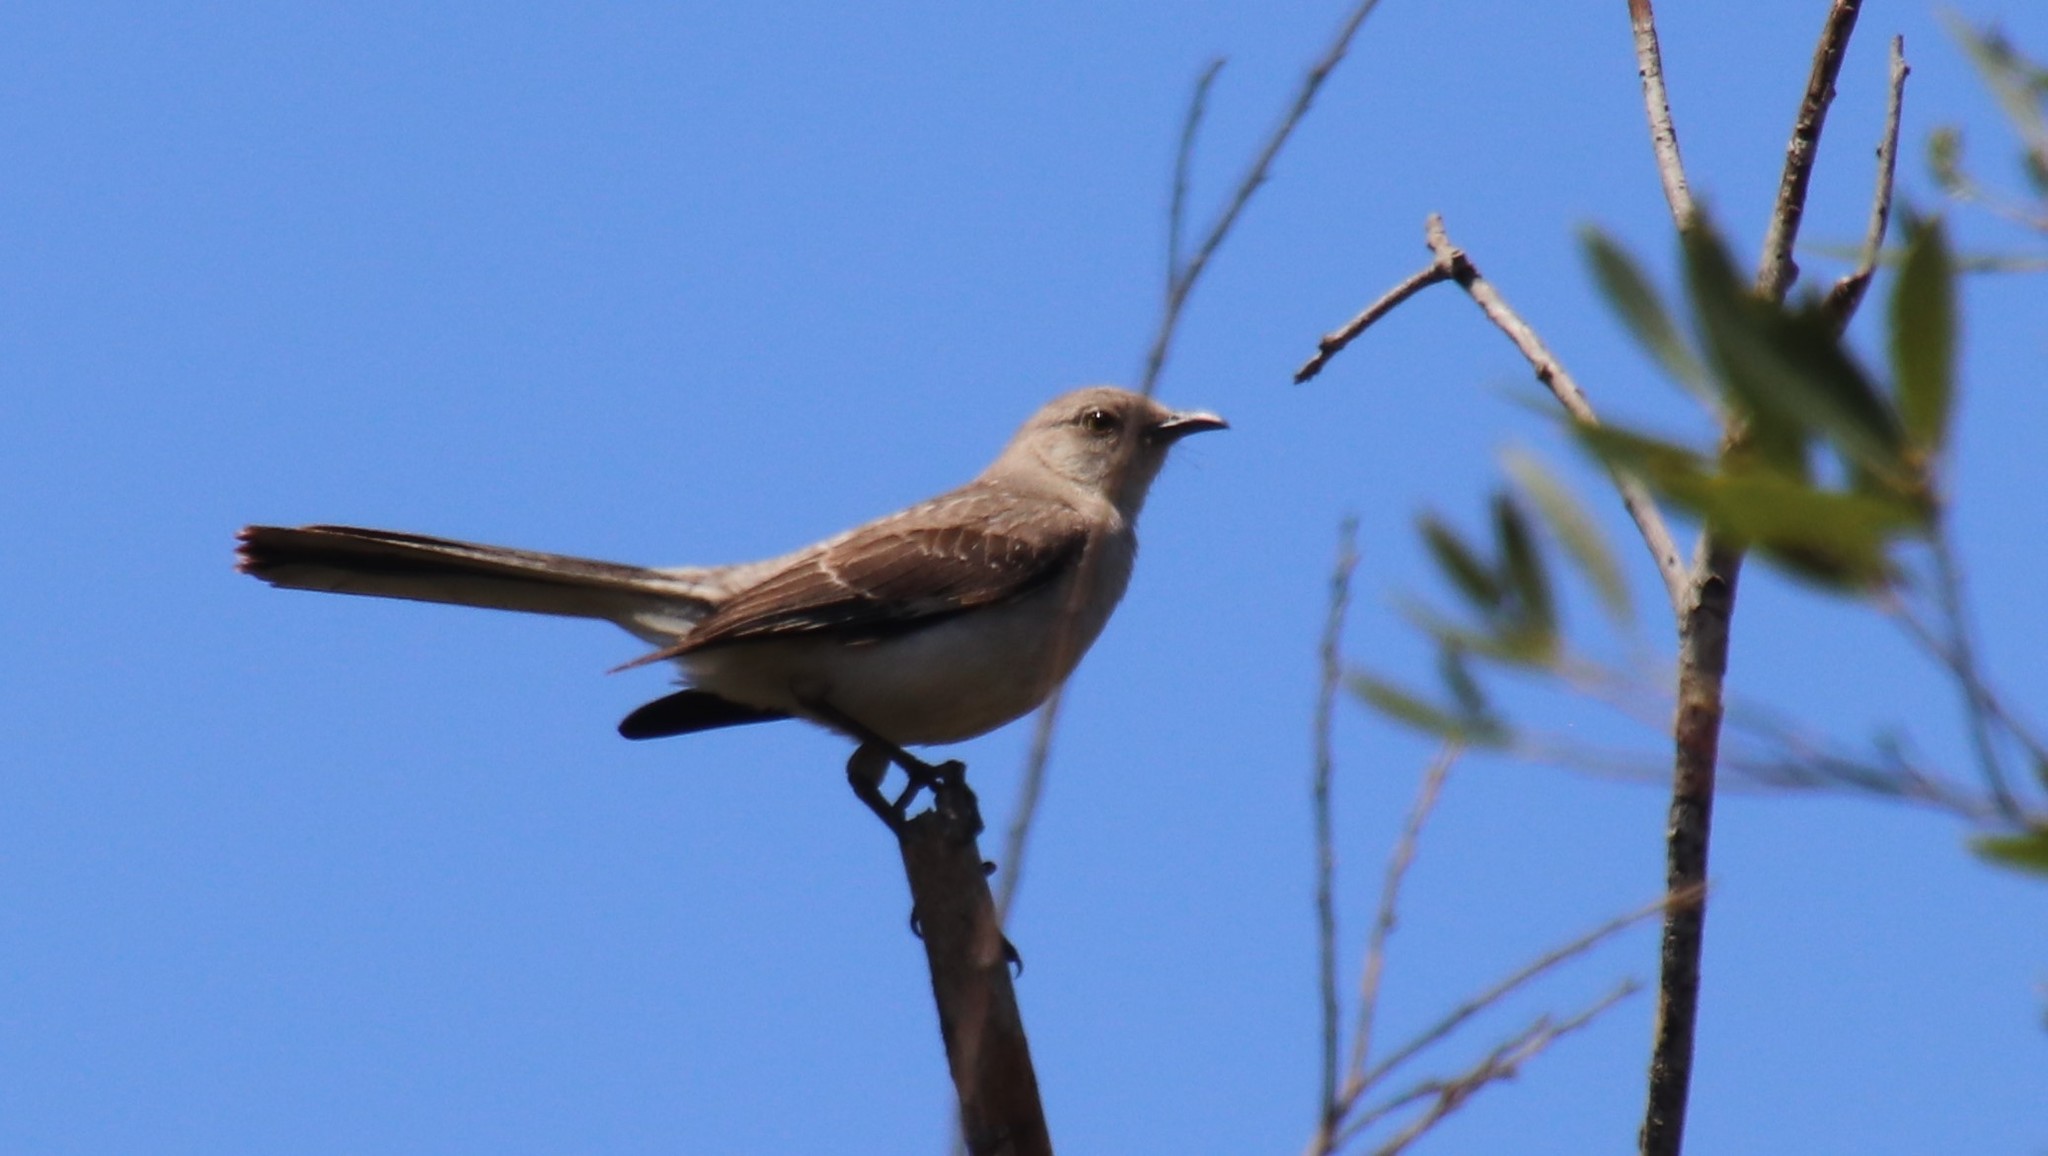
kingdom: Animalia
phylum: Chordata
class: Aves
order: Passeriformes
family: Mimidae
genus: Mimus
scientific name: Mimus polyglottos
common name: Northern mockingbird
